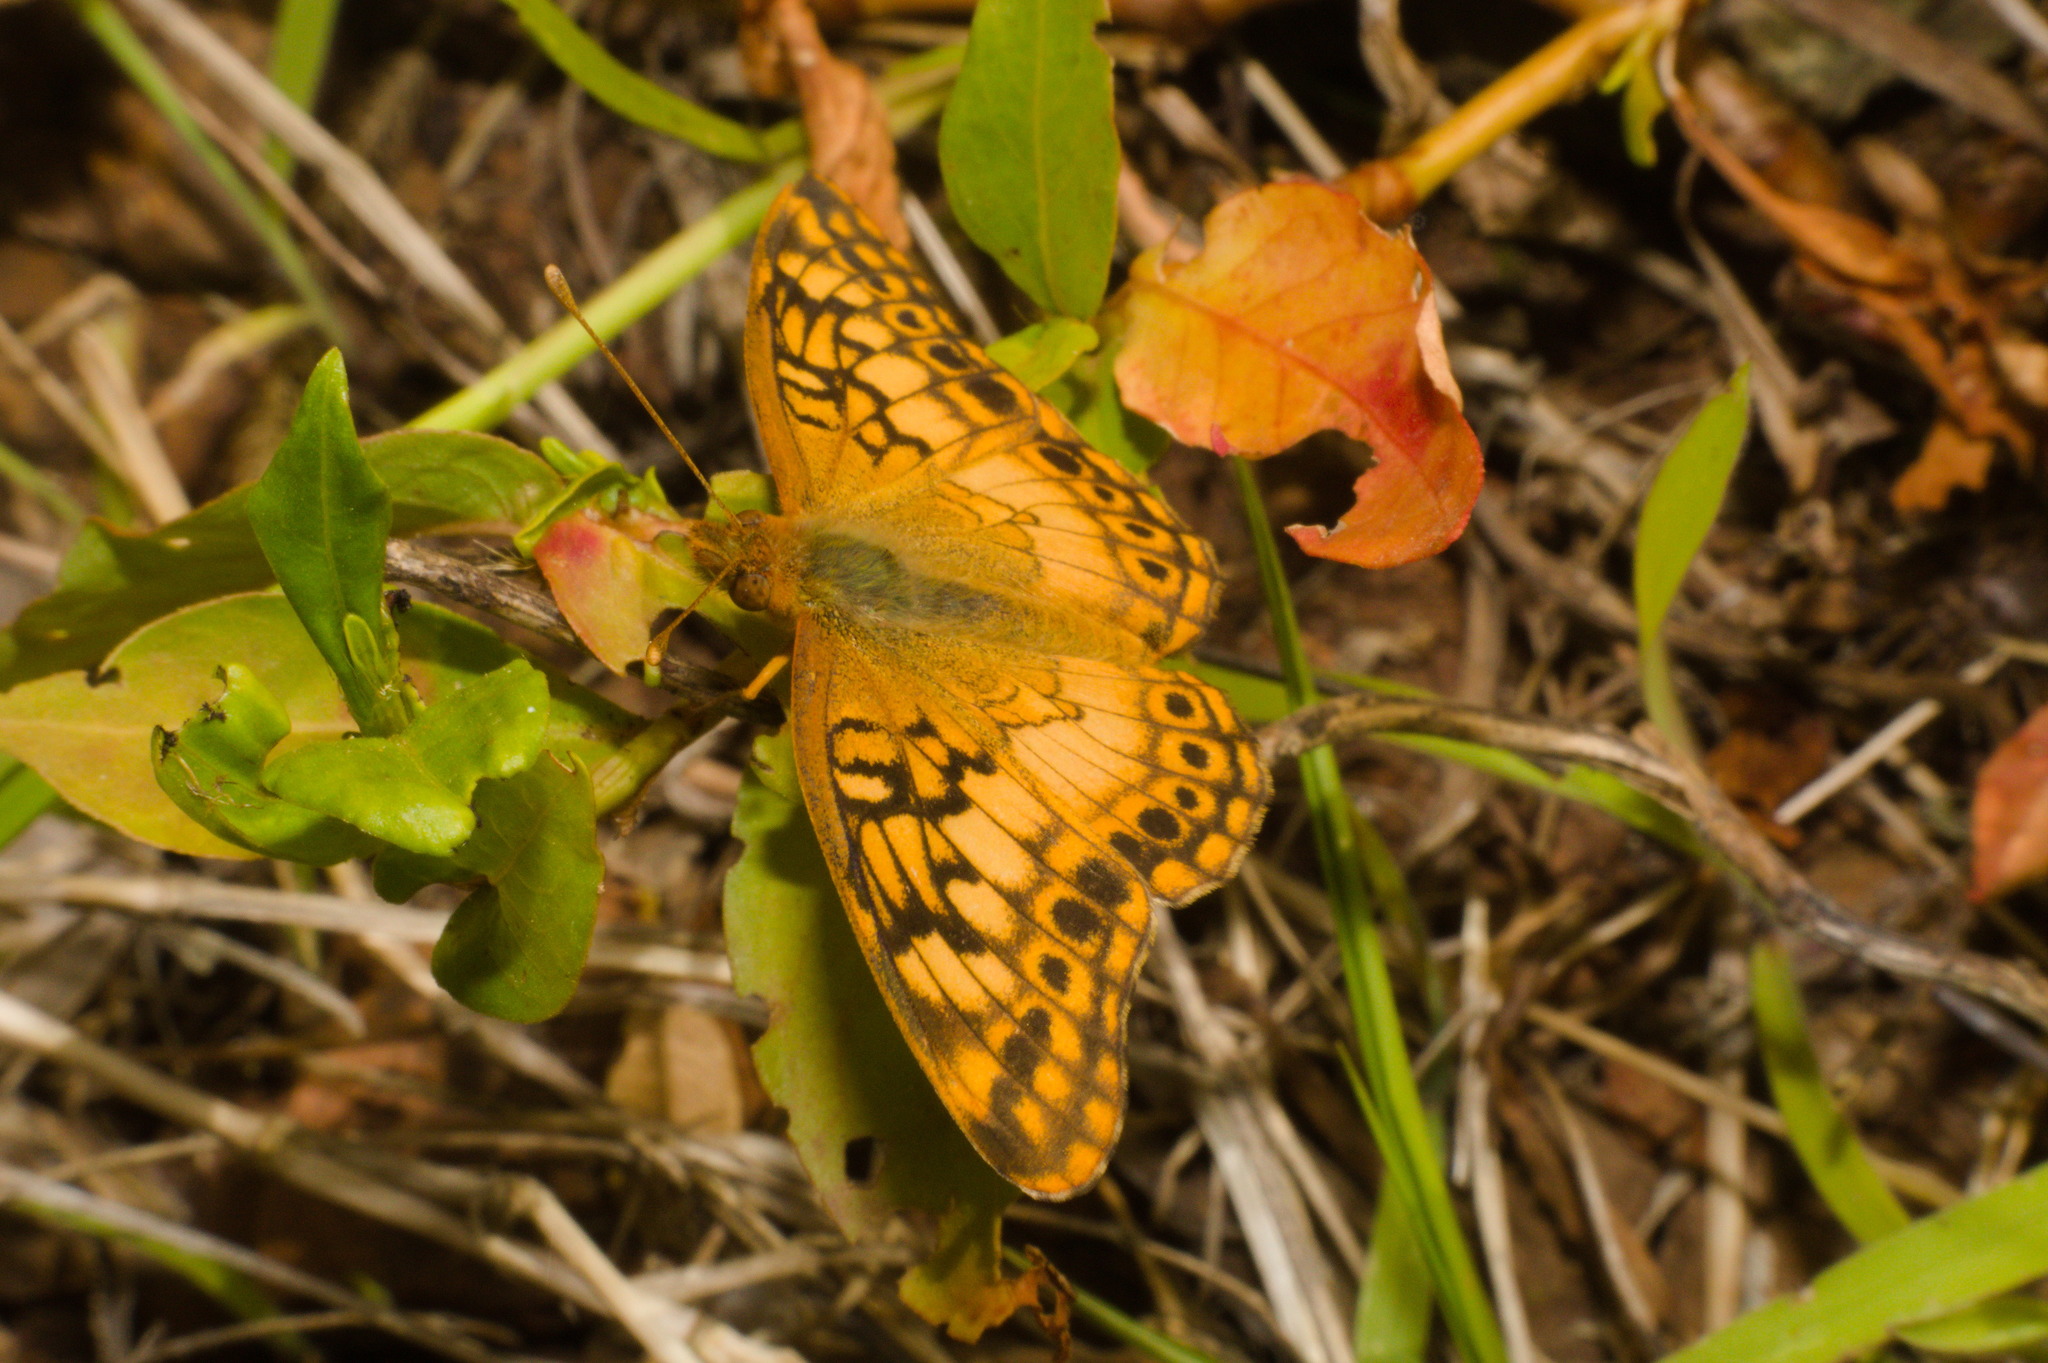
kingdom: Animalia
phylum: Arthropoda
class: Insecta
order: Lepidoptera
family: Nymphalidae
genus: Euptoieta
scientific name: Euptoieta hortensia
